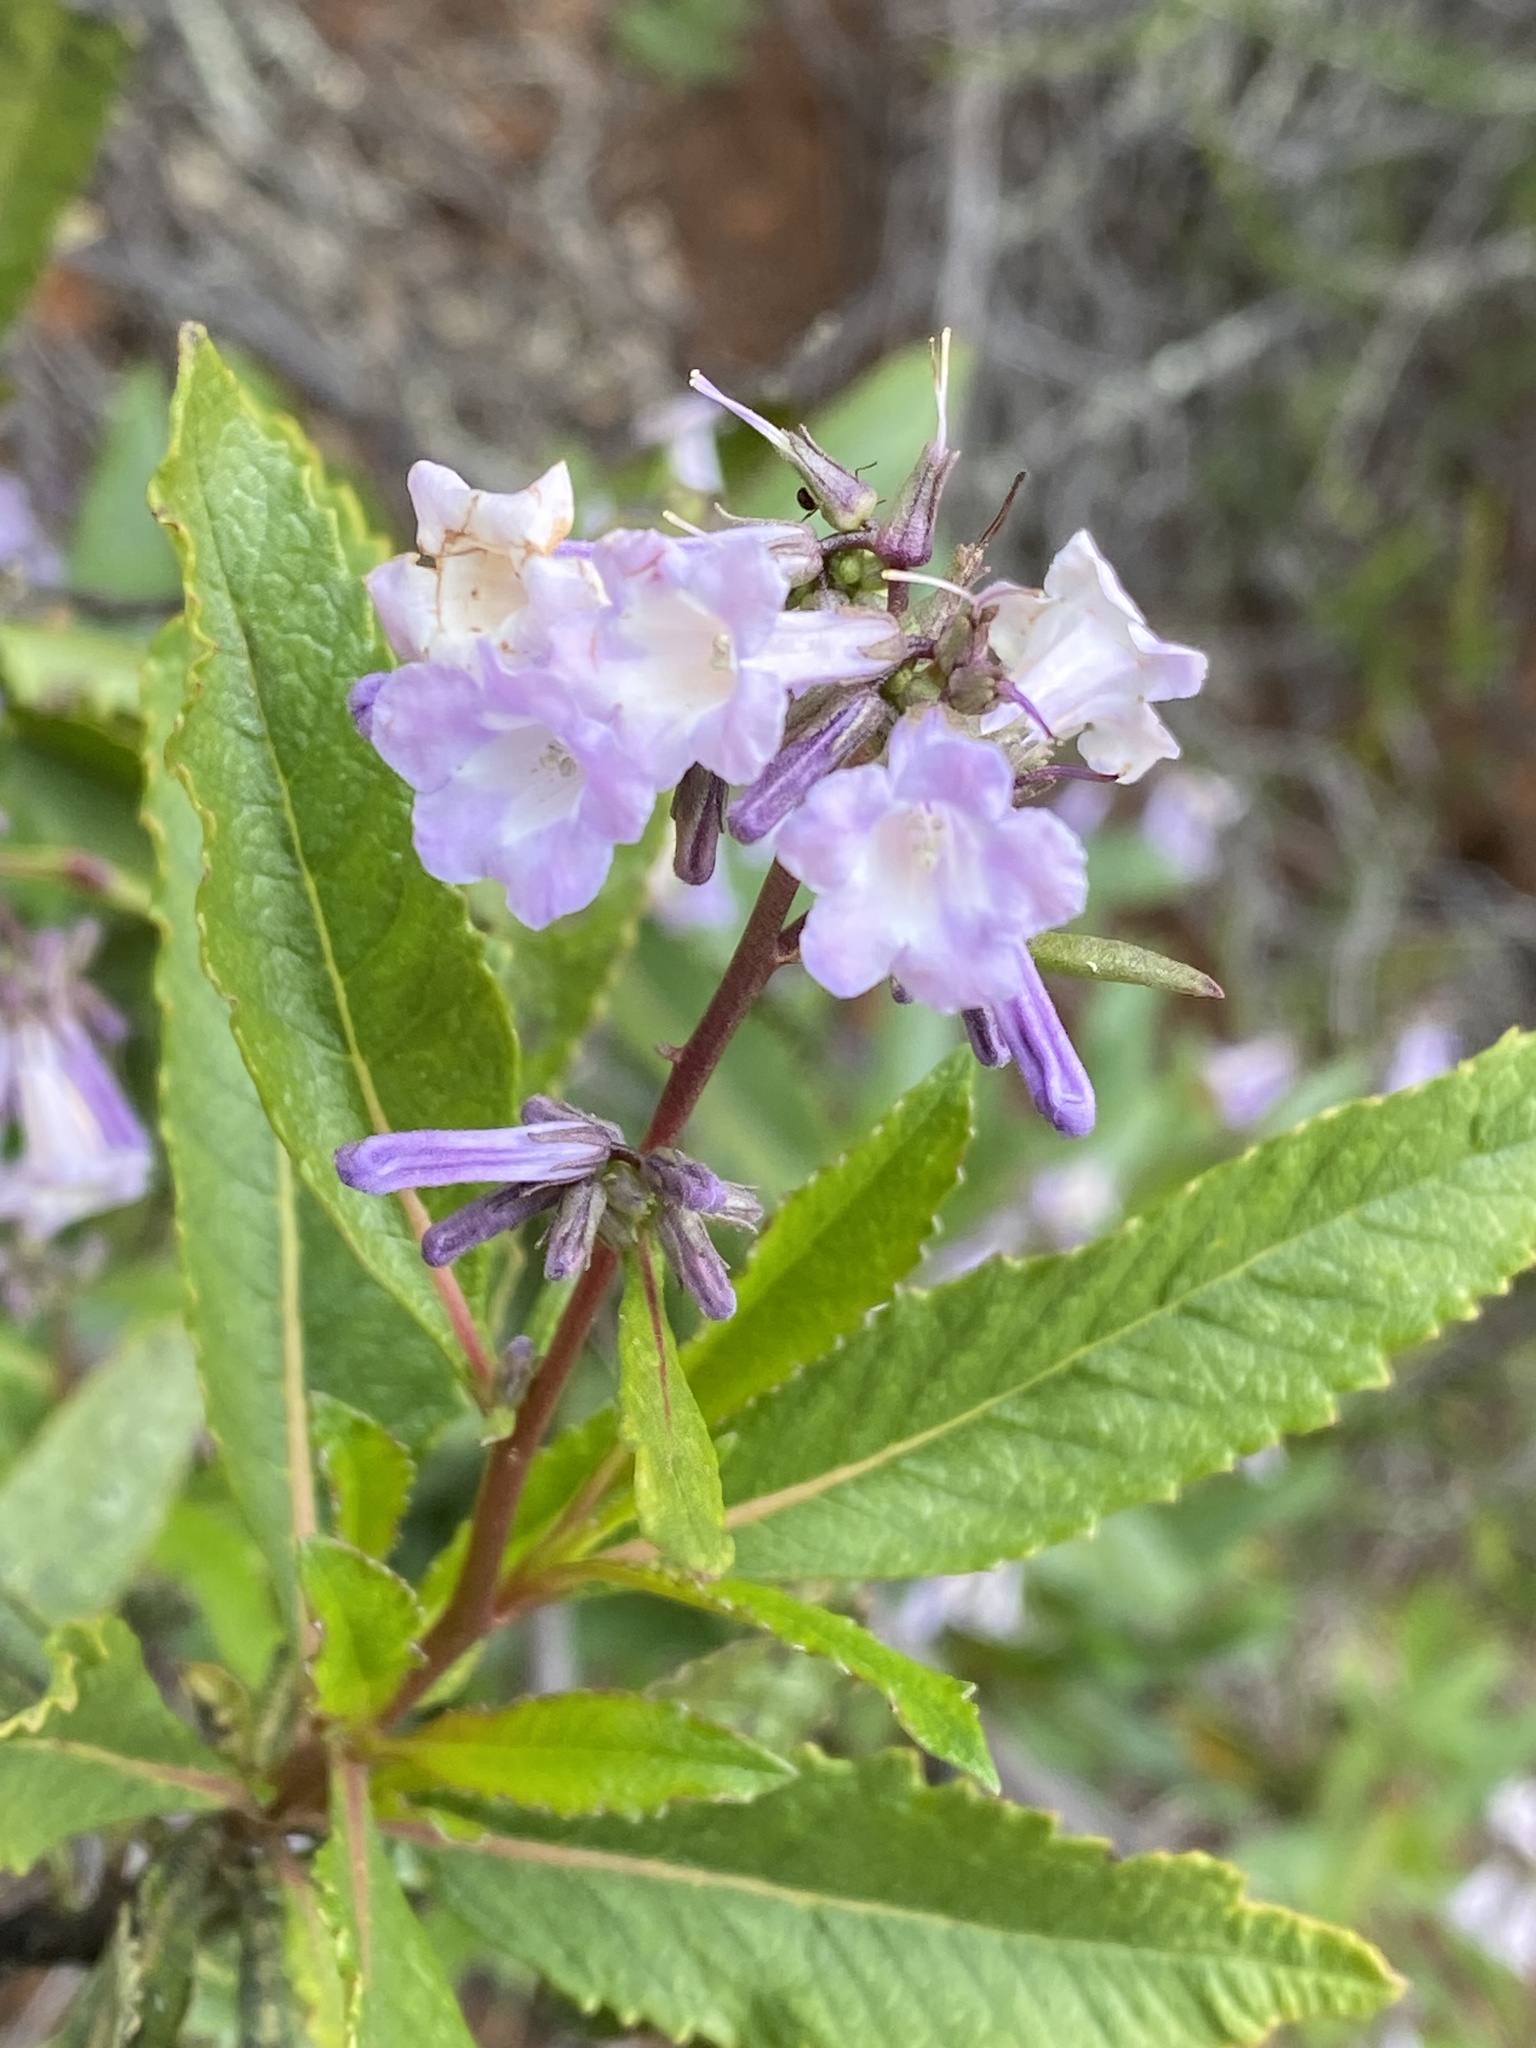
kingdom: Plantae
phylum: Tracheophyta
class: Magnoliopsida
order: Boraginales
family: Namaceae
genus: Eriodictyon
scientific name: Eriodictyon californicum
